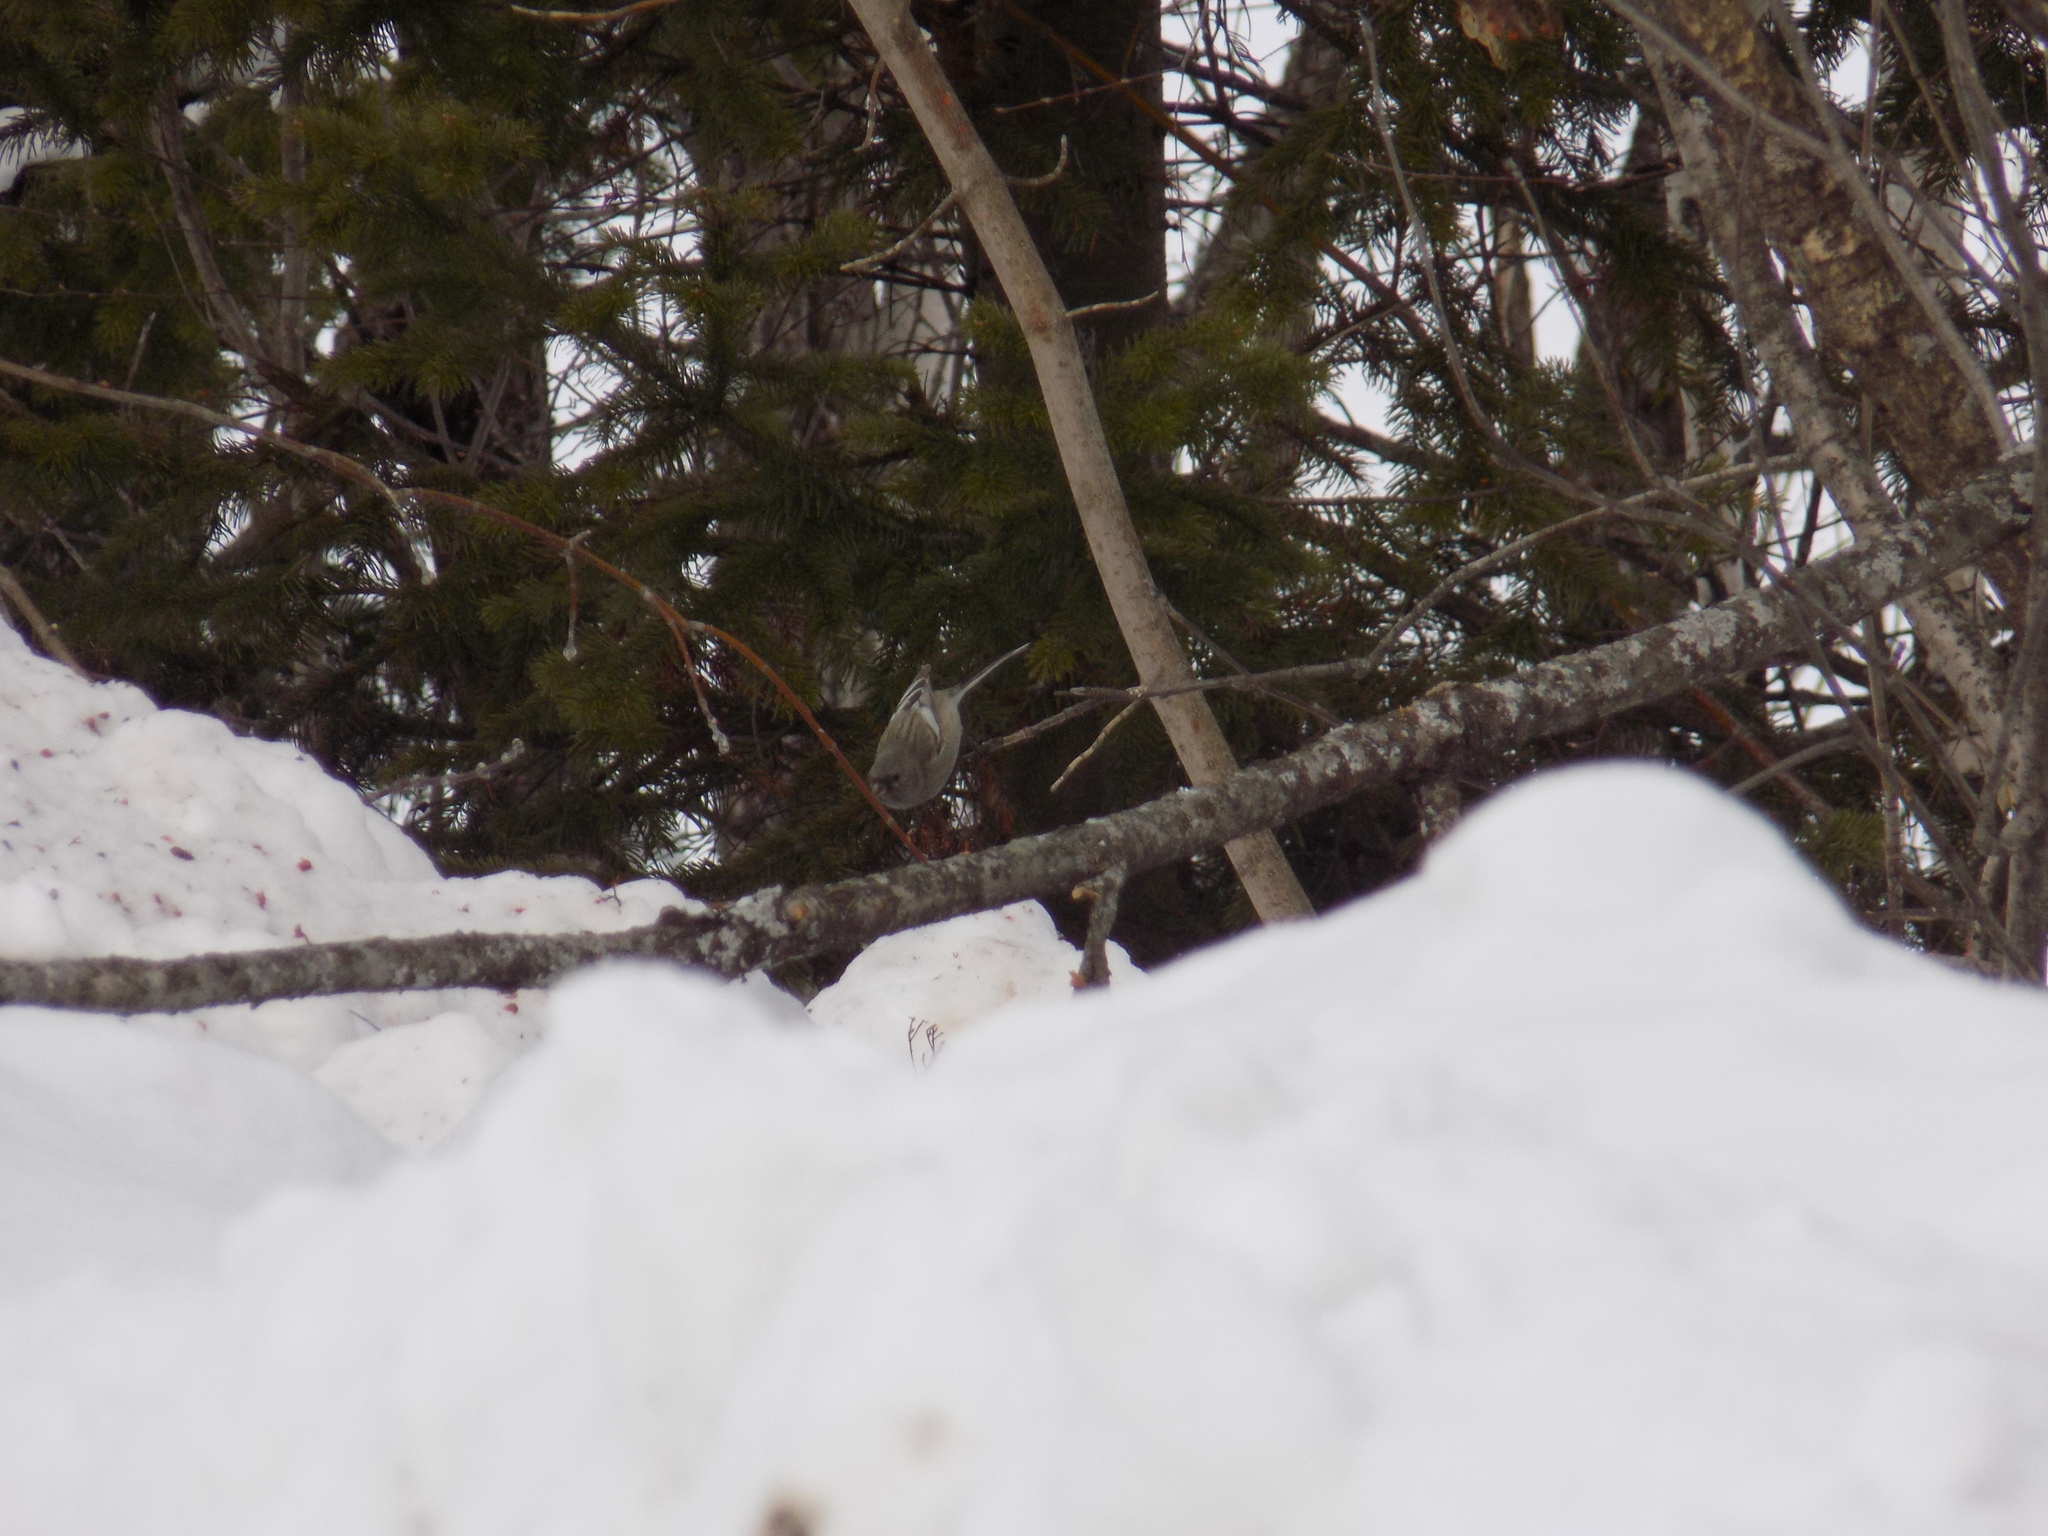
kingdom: Animalia
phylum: Chordata
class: Aves
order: Passeriformes
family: Fringillidae
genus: Carpodacus
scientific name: Carpodacus sibiricus
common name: Long-tailed rosefinch
